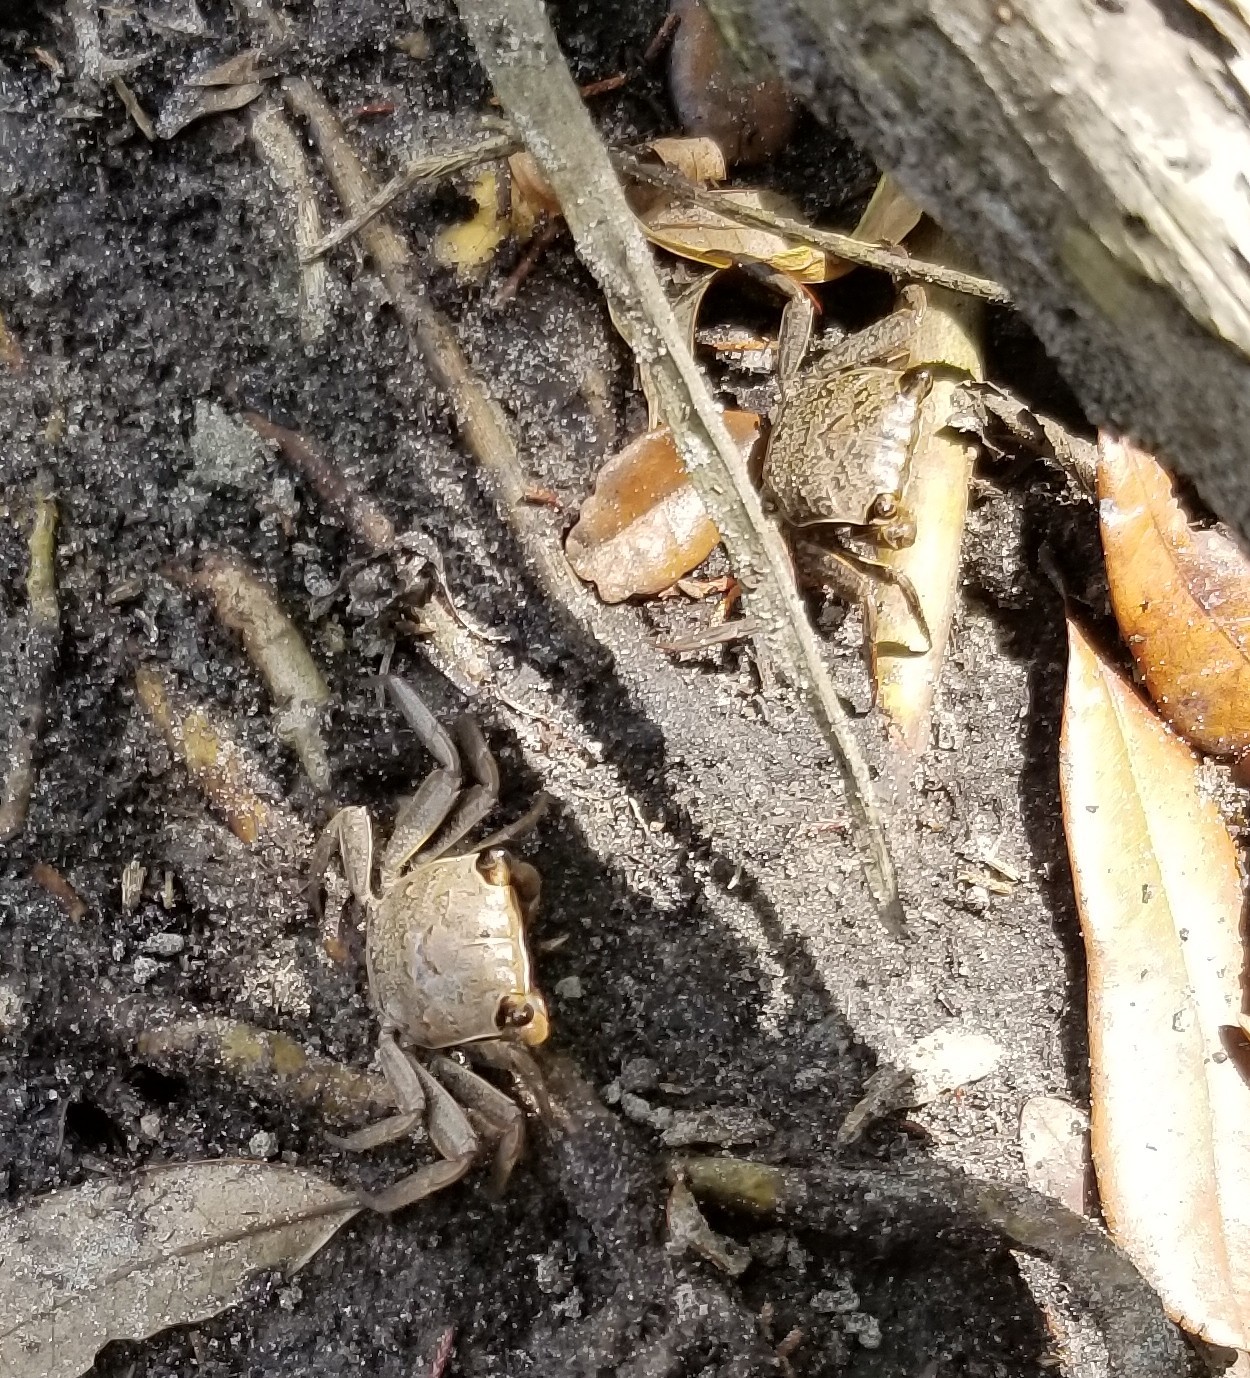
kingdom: Animalia
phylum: Arthropoda
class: Malacostraca
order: Decapoda
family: Sesarmidae
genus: Armases
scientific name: Armases cinereum
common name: Squareback marsh crab
